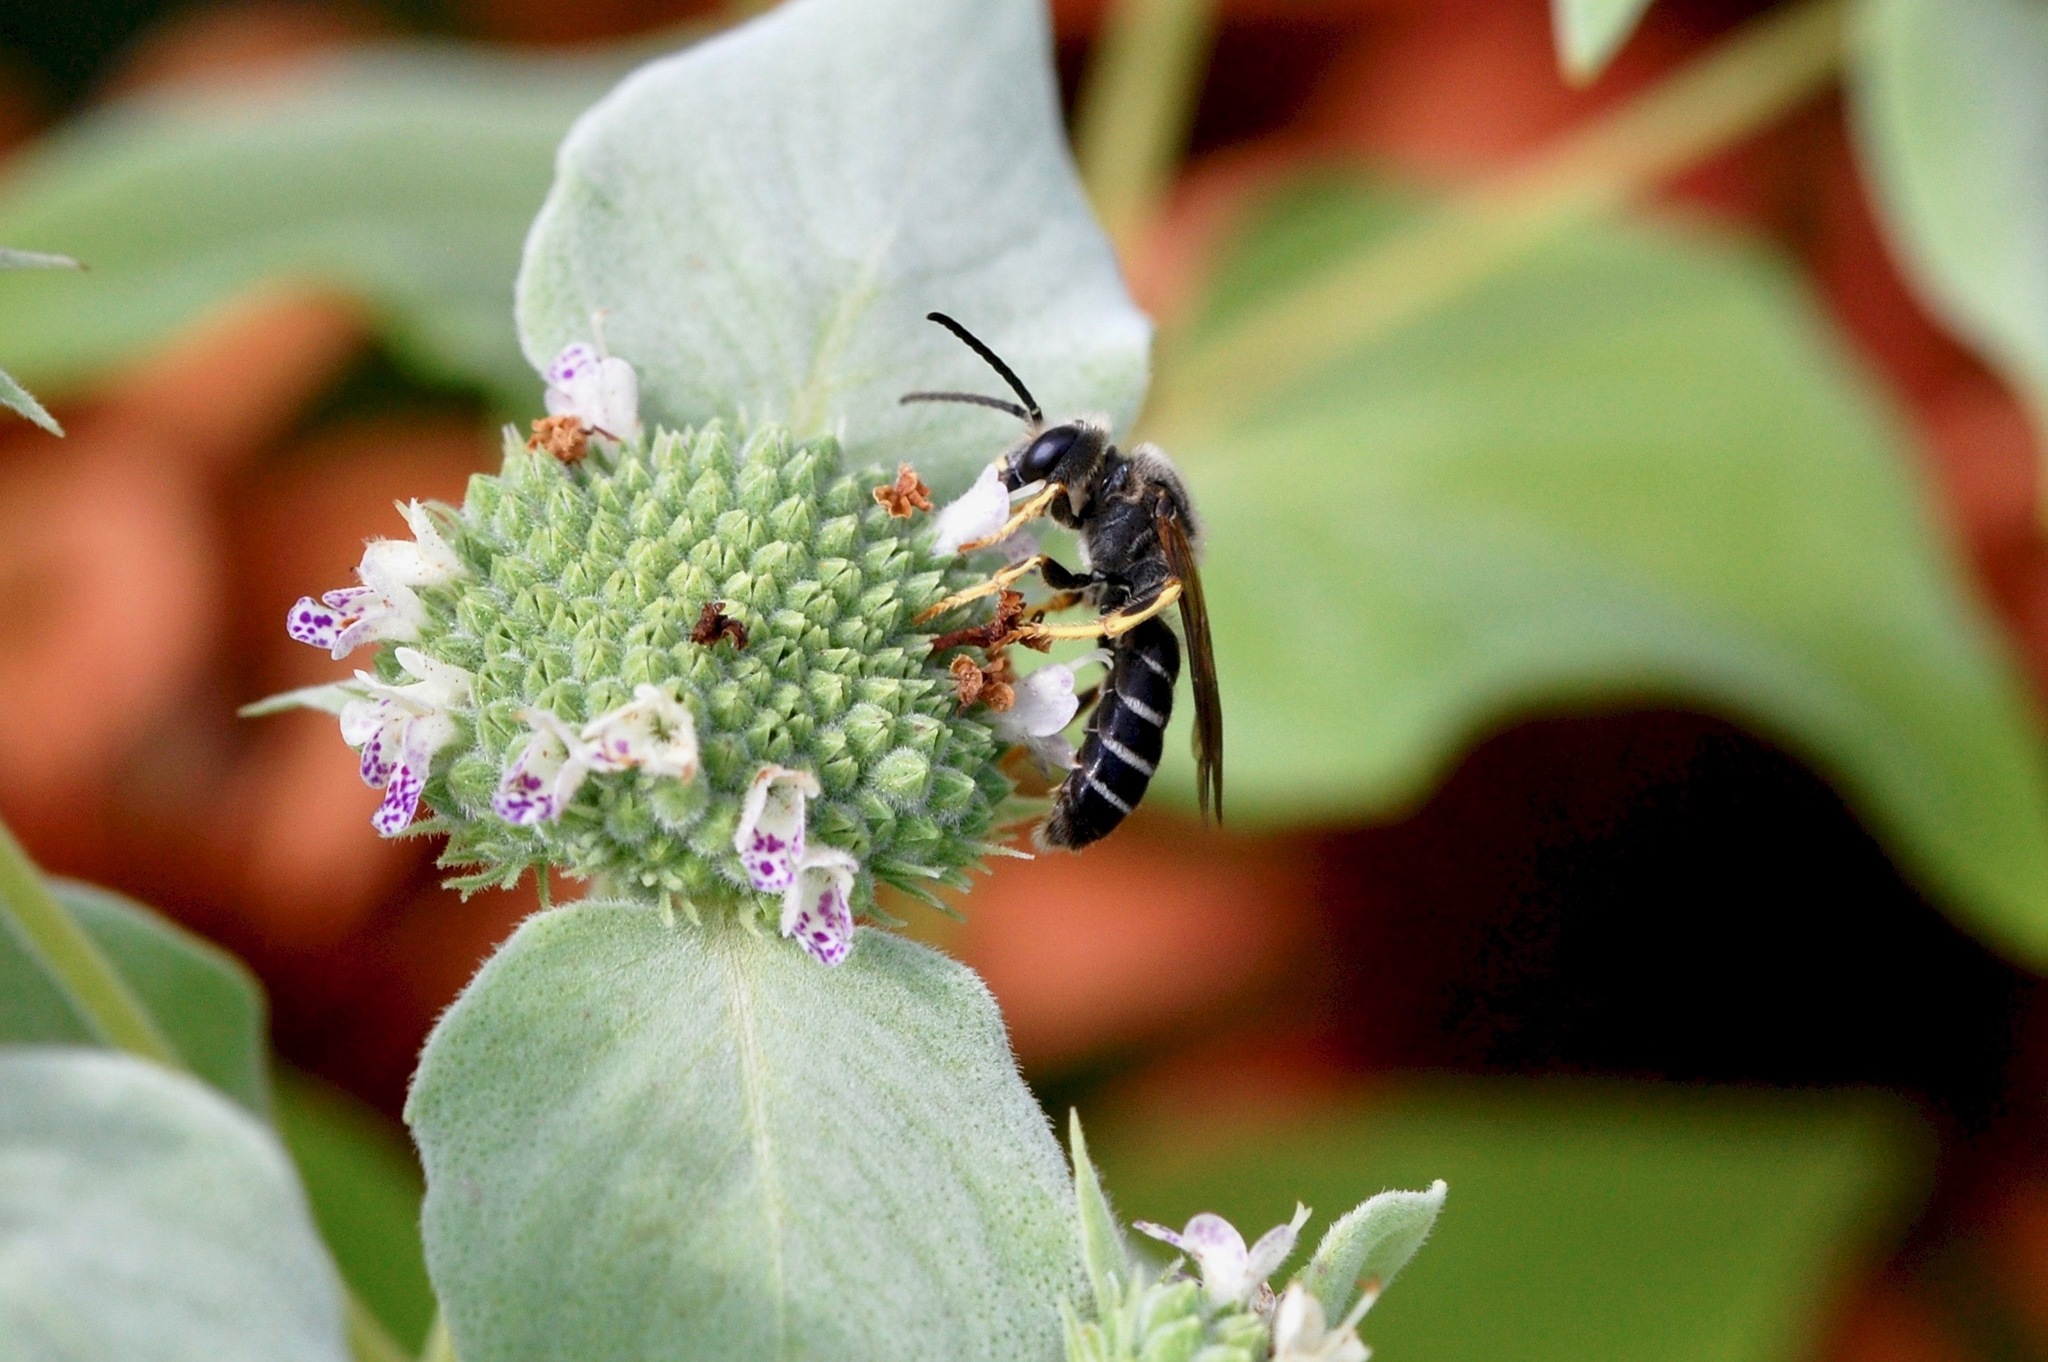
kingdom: Animalia
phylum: Arthropoda
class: Insecta
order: Hymenoptera
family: Halictidae
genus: Halictus
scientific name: Halictus rubicundus
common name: Orange-legged furrow bee
